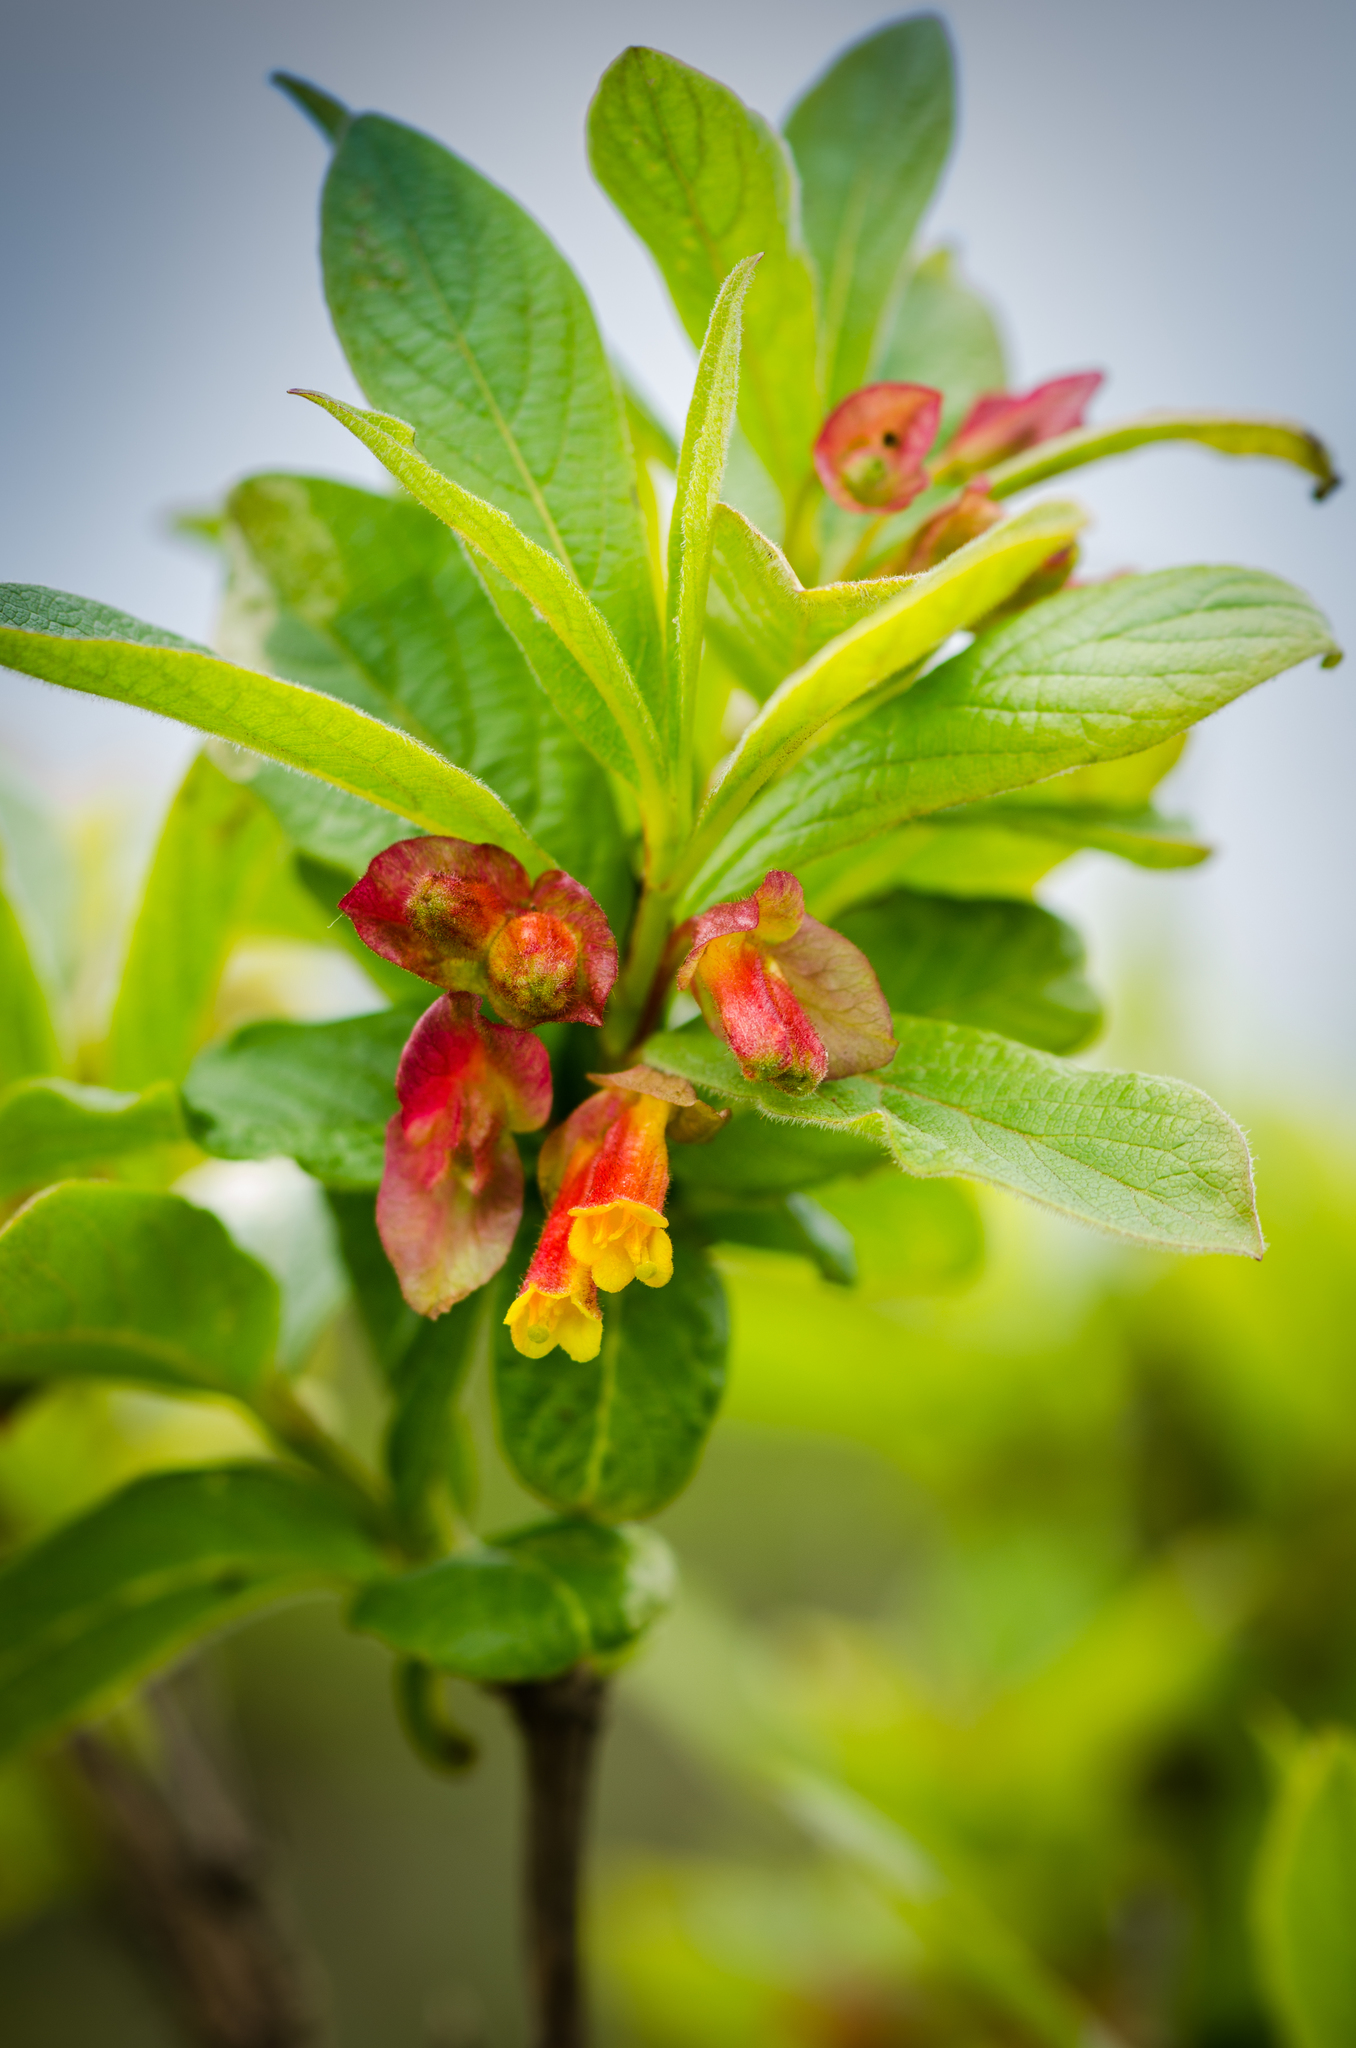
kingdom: Plantae
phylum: Tracheophyta
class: Magnoliopsida
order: Dipsacales
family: Caprifoliaceae
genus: Lonicera
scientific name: Lonicera involucrata
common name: Californian honeysuckle
